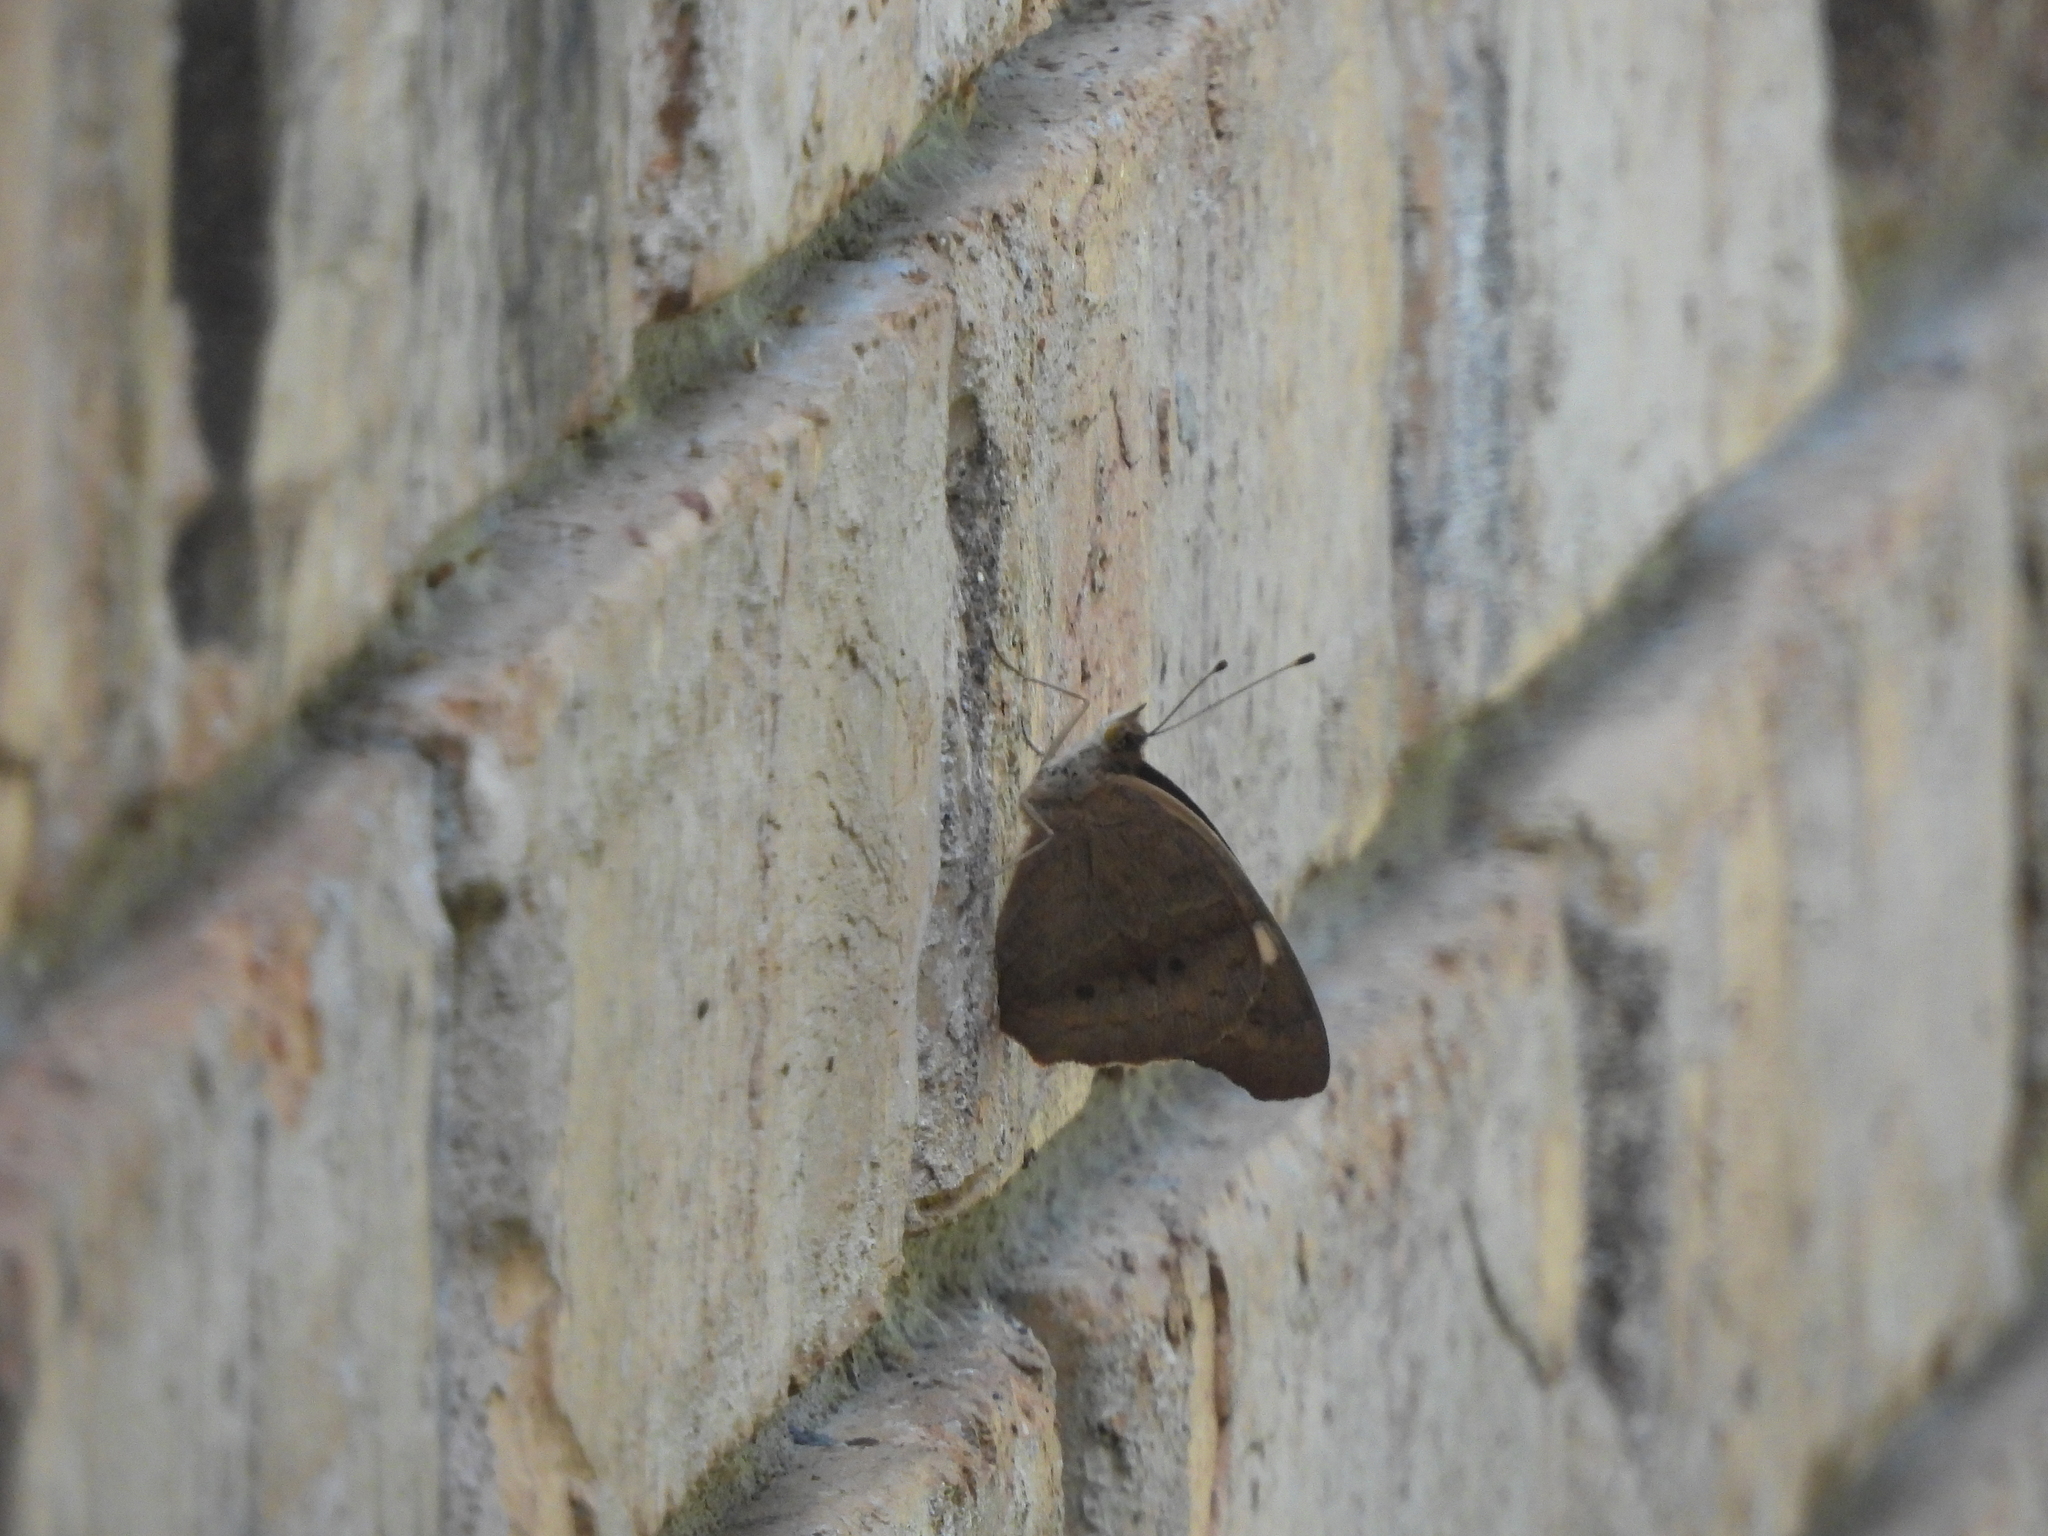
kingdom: Animalia
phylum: Arthropoda
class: Insecta
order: Lepidoptera
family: Nymphalidae
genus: Junonia
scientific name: Junonia coenia
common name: Common buckeye
